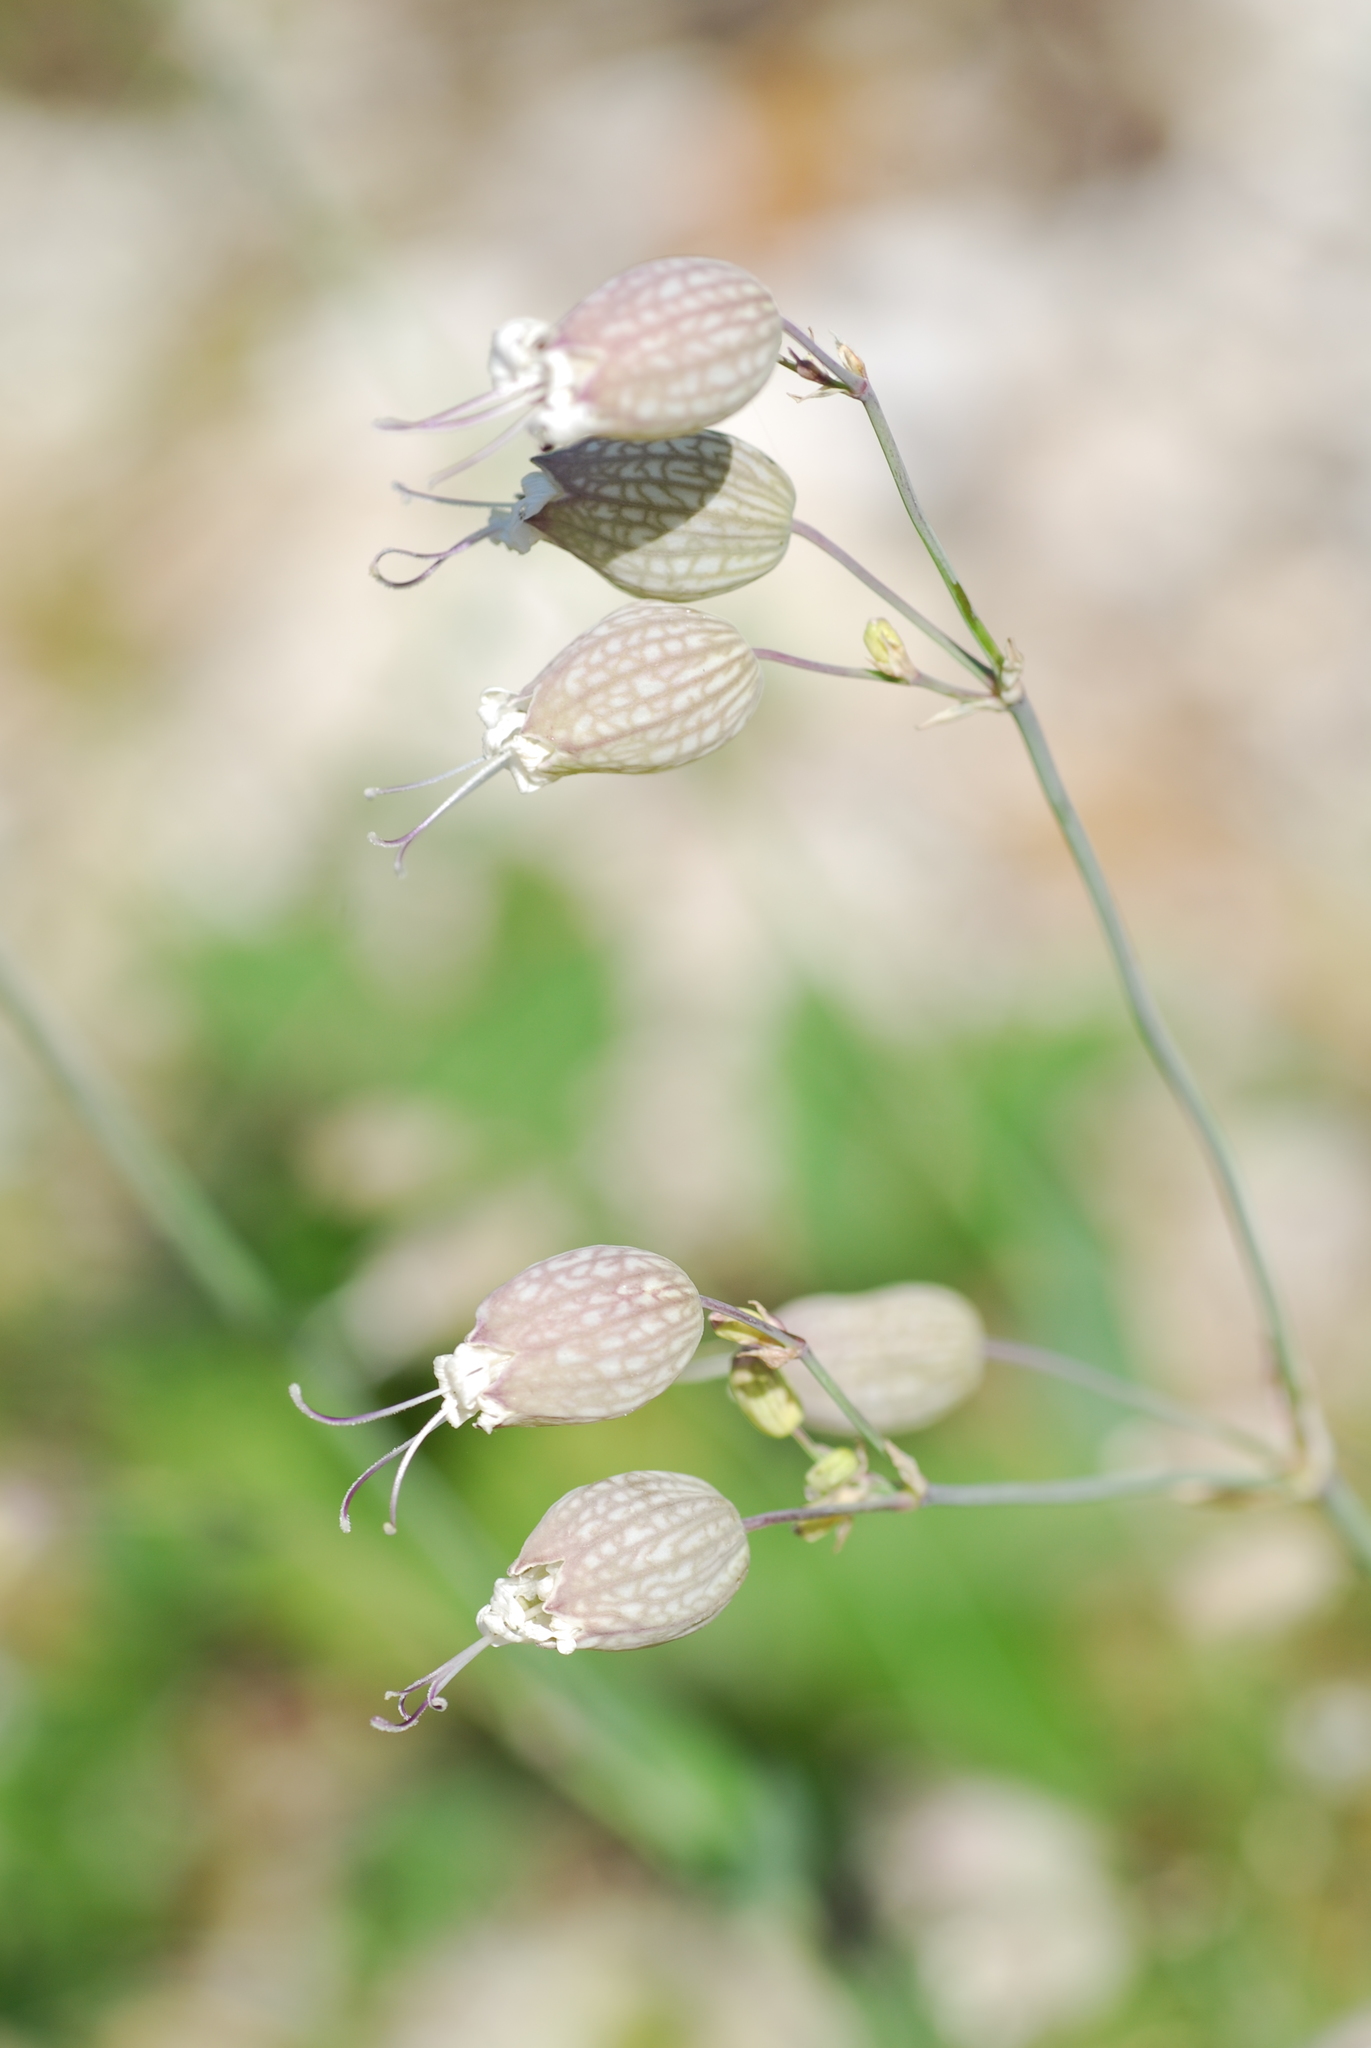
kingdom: Plantae
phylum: Tracheophyta
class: Magnoliopsida
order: Caryophyllales
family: Caryophyllaceae
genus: Silene
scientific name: Silene vulgaris
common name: Bladder campion
